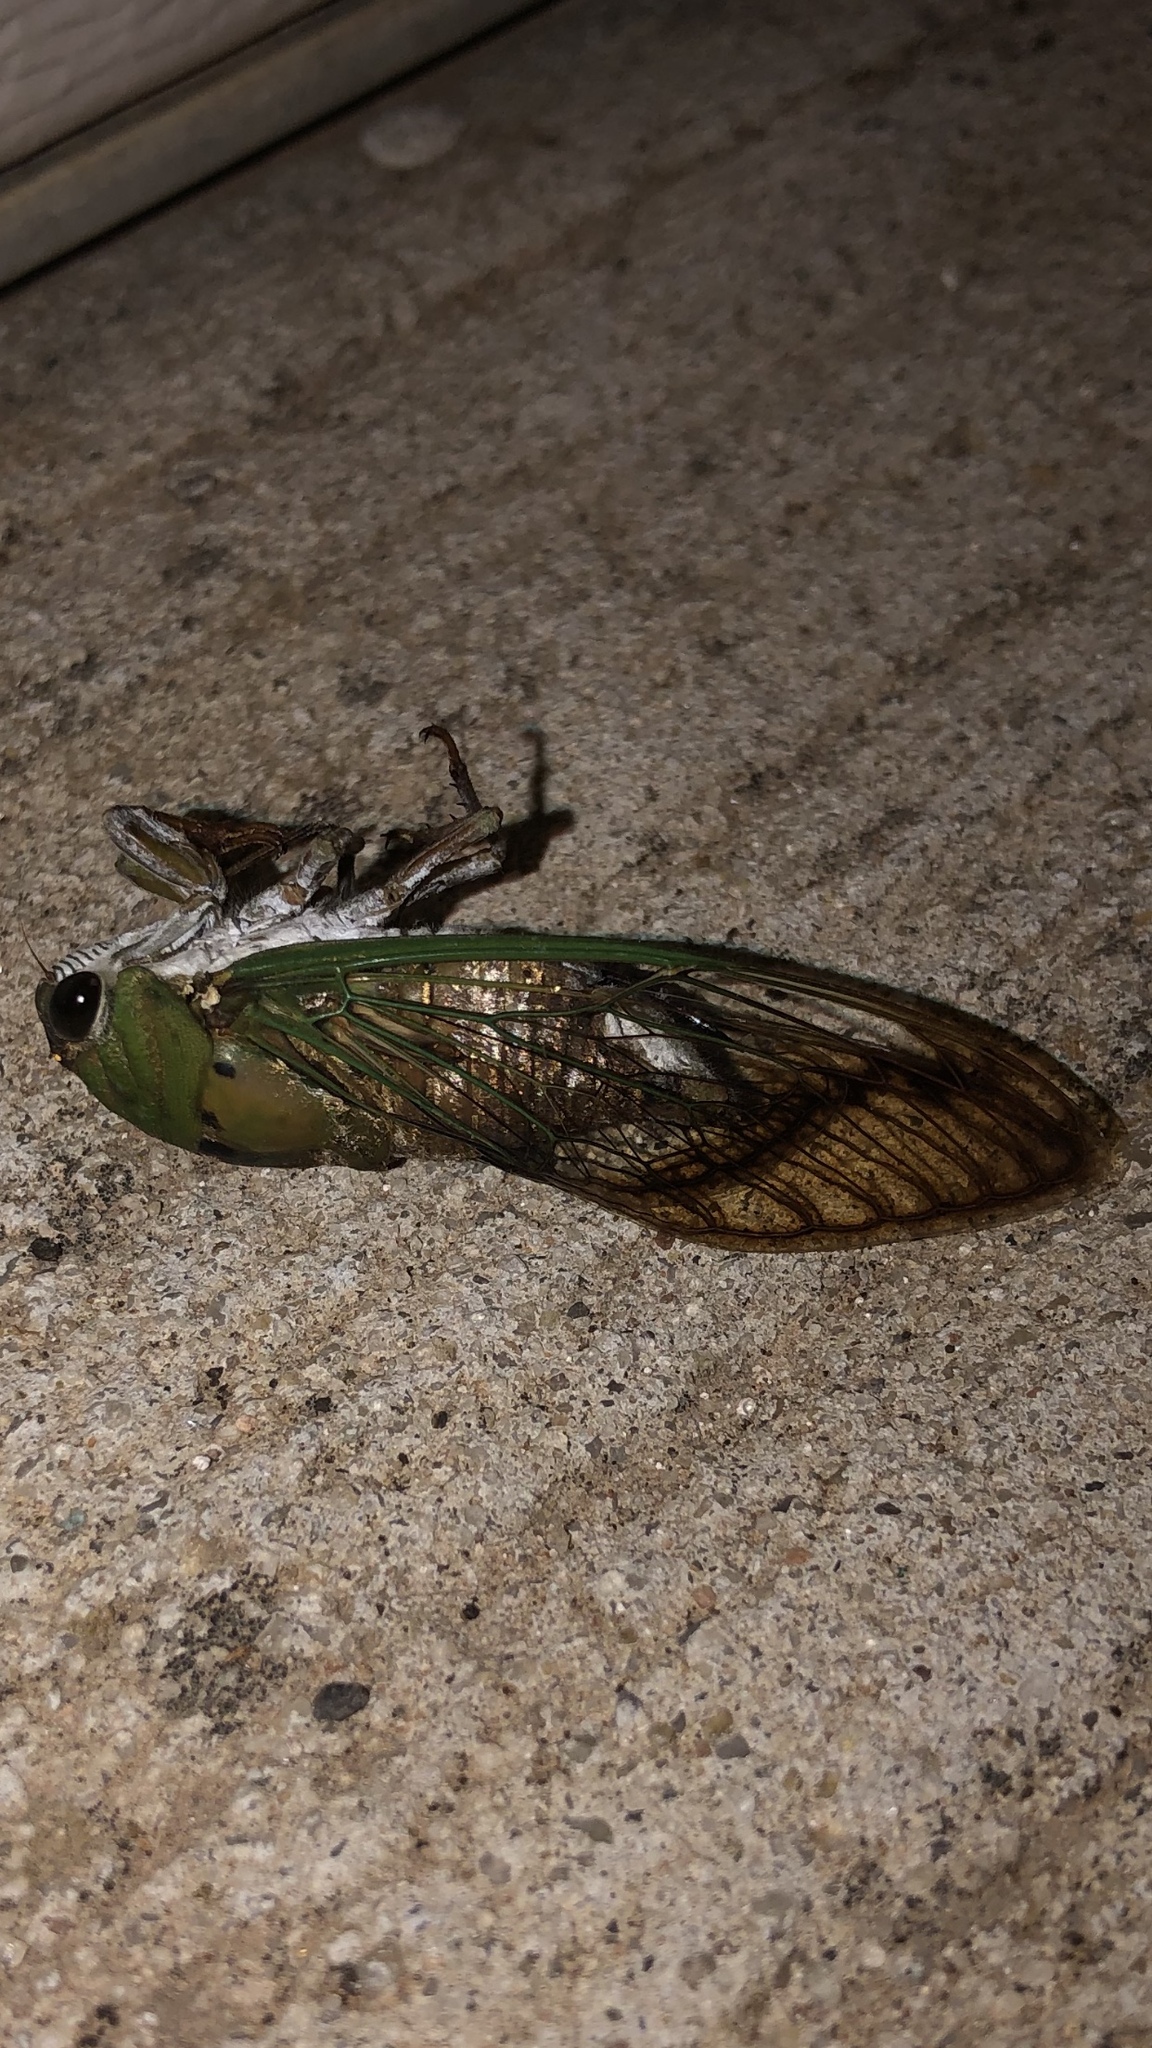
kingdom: Animalia
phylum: Arthropoda
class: Insecta
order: Hemiptera
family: Cicadidae
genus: Neotibicen
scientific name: Neotibicen superbus
